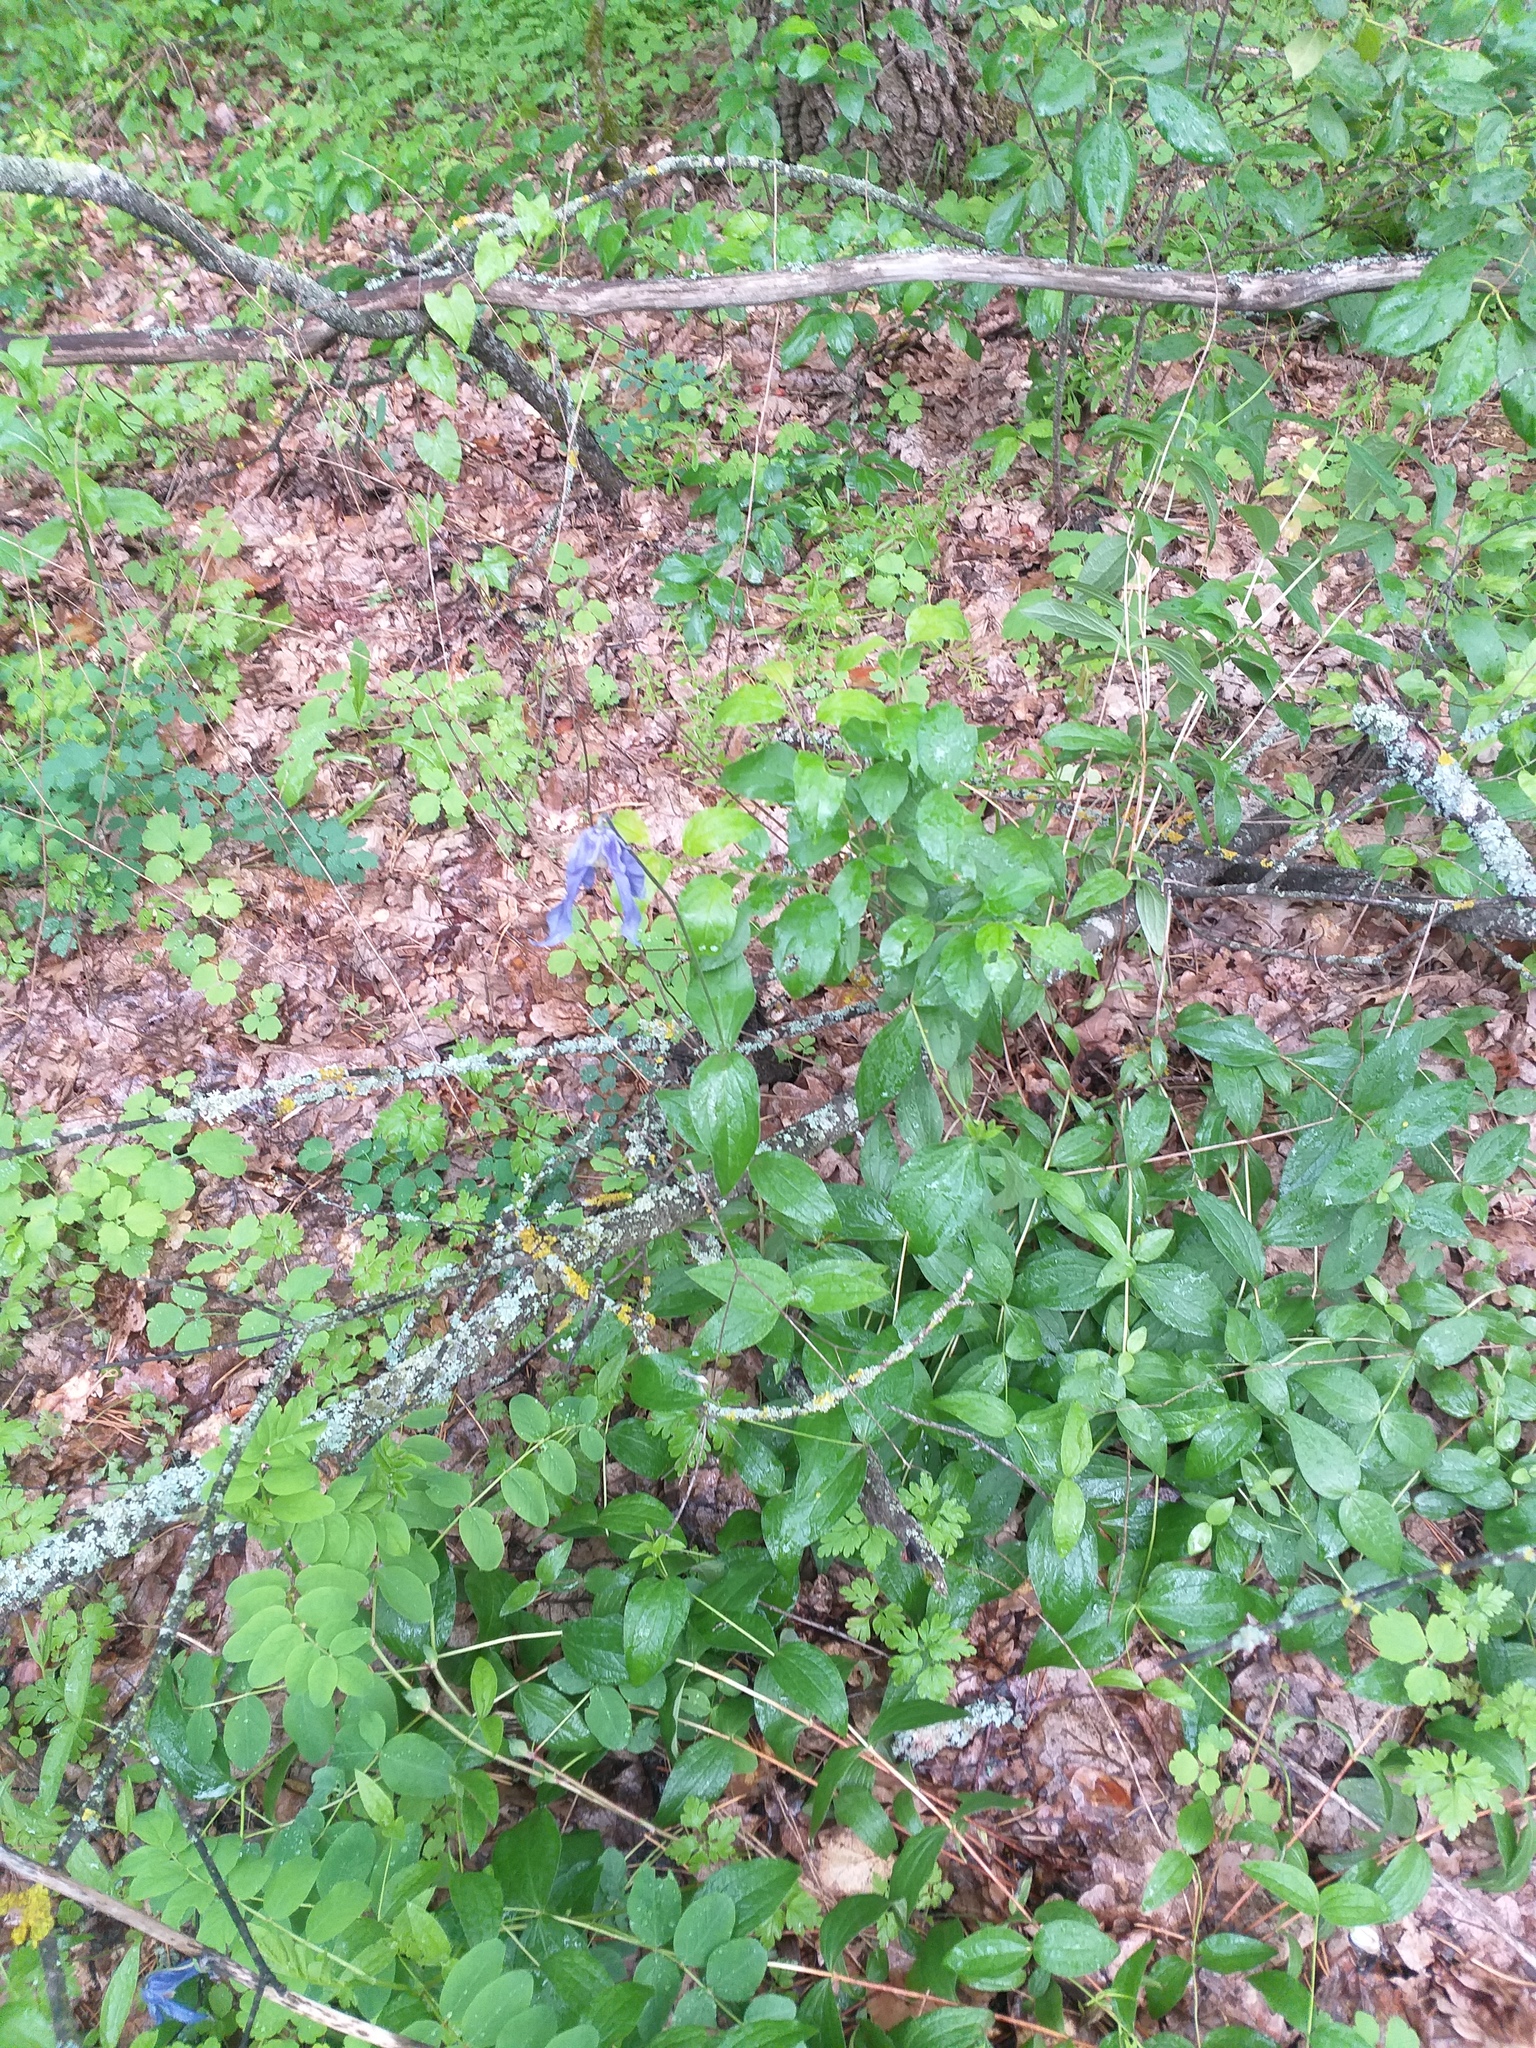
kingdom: Plantae
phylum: Tracheophyta
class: Magnoliopsida
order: Ranunculales
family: Ranunculaceae
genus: Clematis
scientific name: Clematis integrifolia
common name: Solitary clematis
